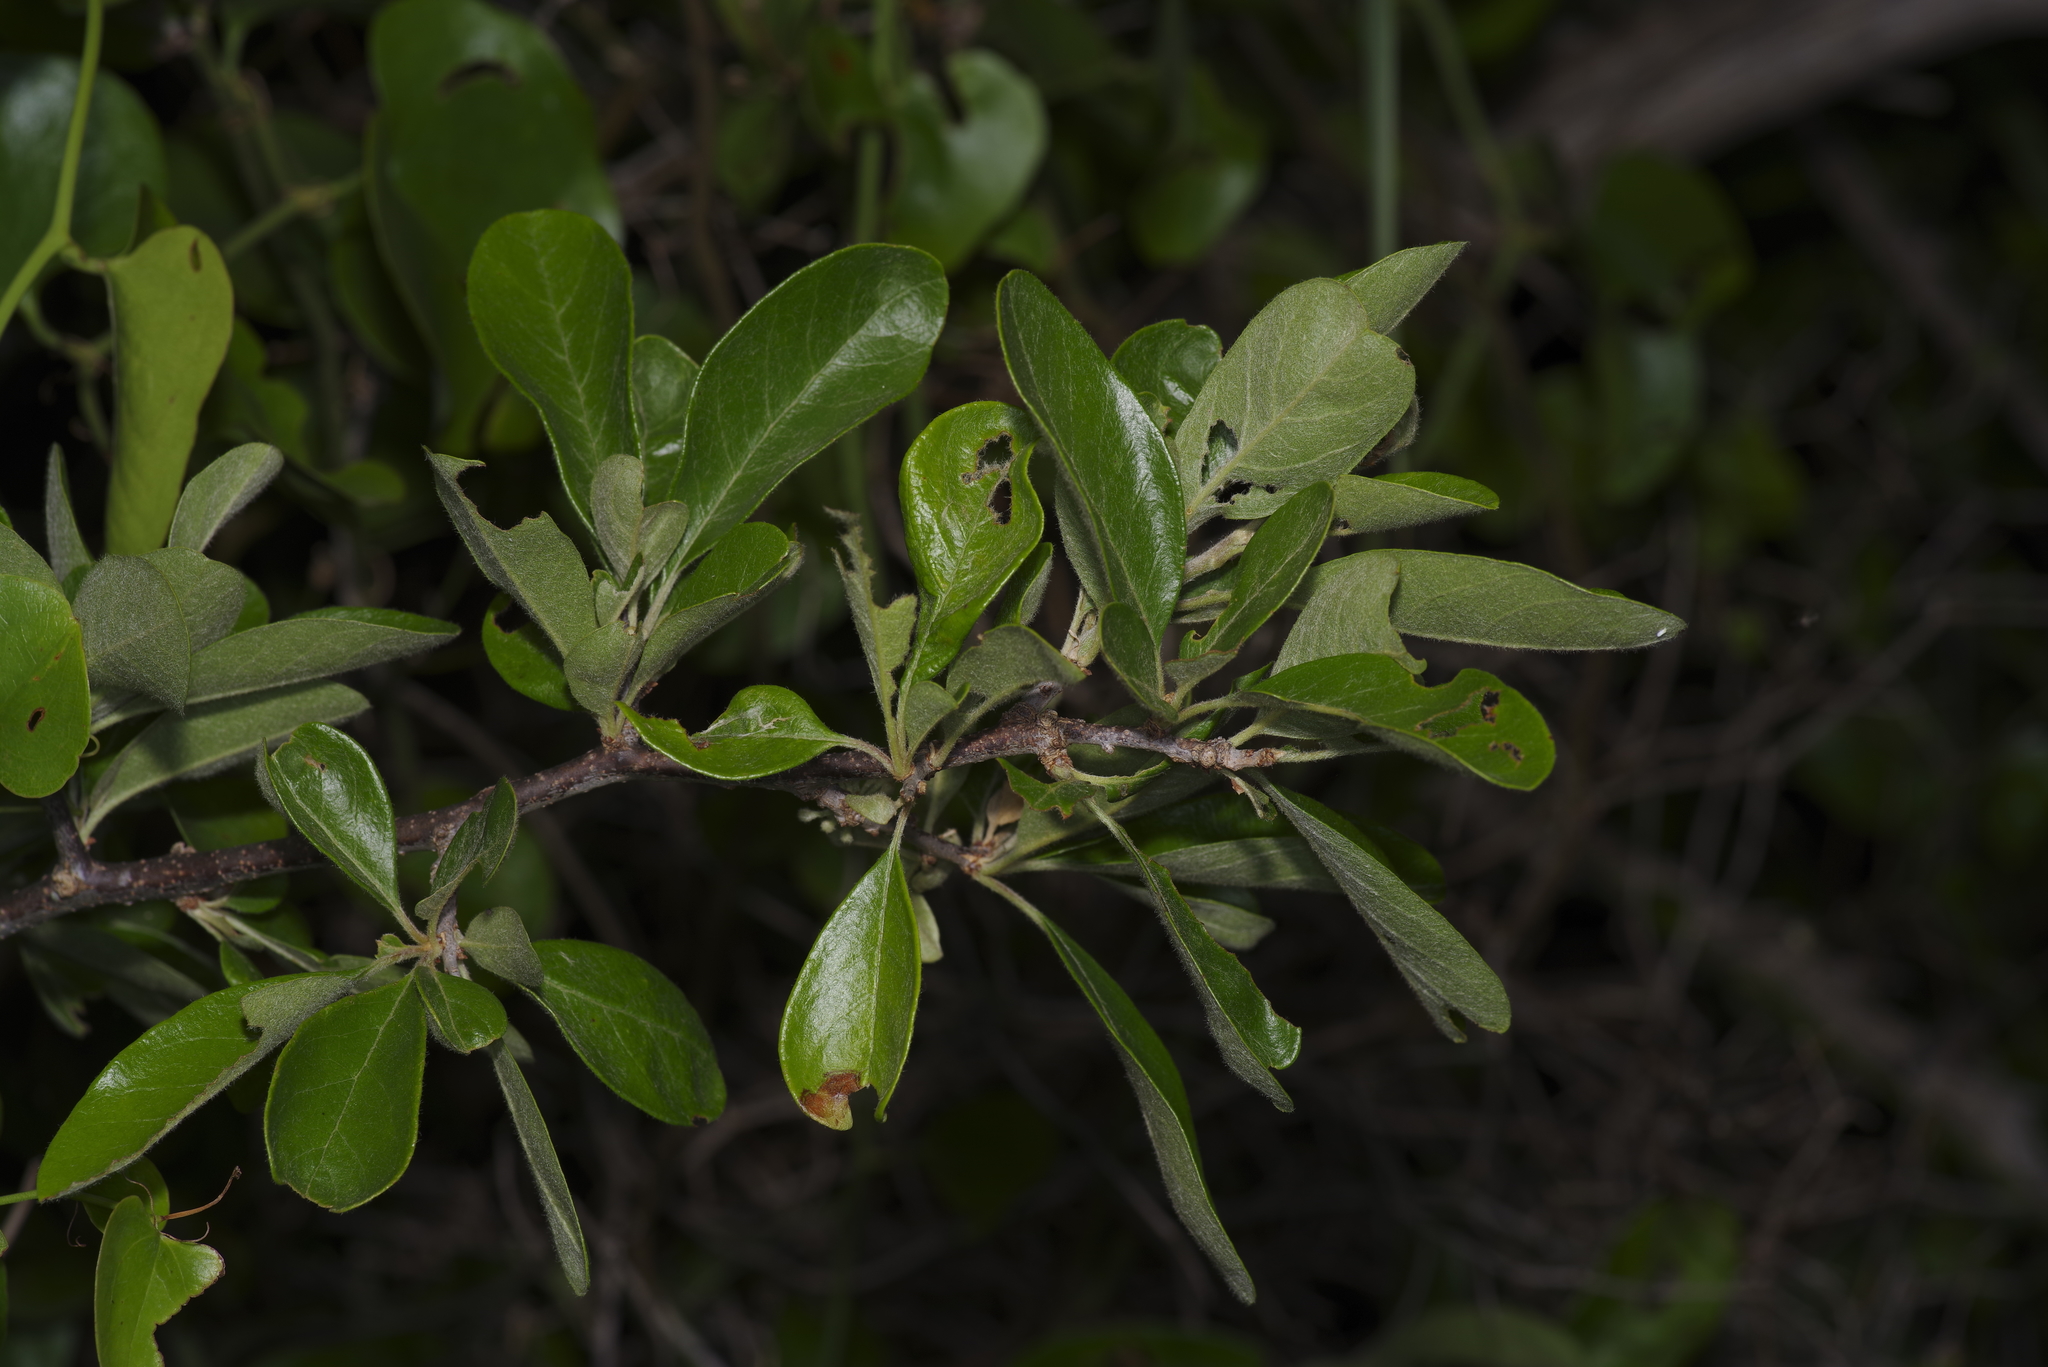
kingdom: Plantae
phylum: Tracheophyta
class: Magnoliopsida
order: Ericales
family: Sapotaceae
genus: Sideroxylon
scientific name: Sideroxylon lanuginosum
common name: Chittamwood
